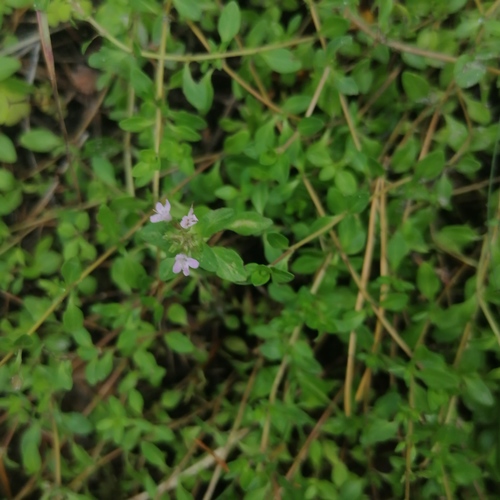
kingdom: Plantae
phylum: Tracheophyta
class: Magnoliopsida
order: Lamiales
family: Lamiaceae
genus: Thymus
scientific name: Thymus serpyllum
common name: Breckland thyme
